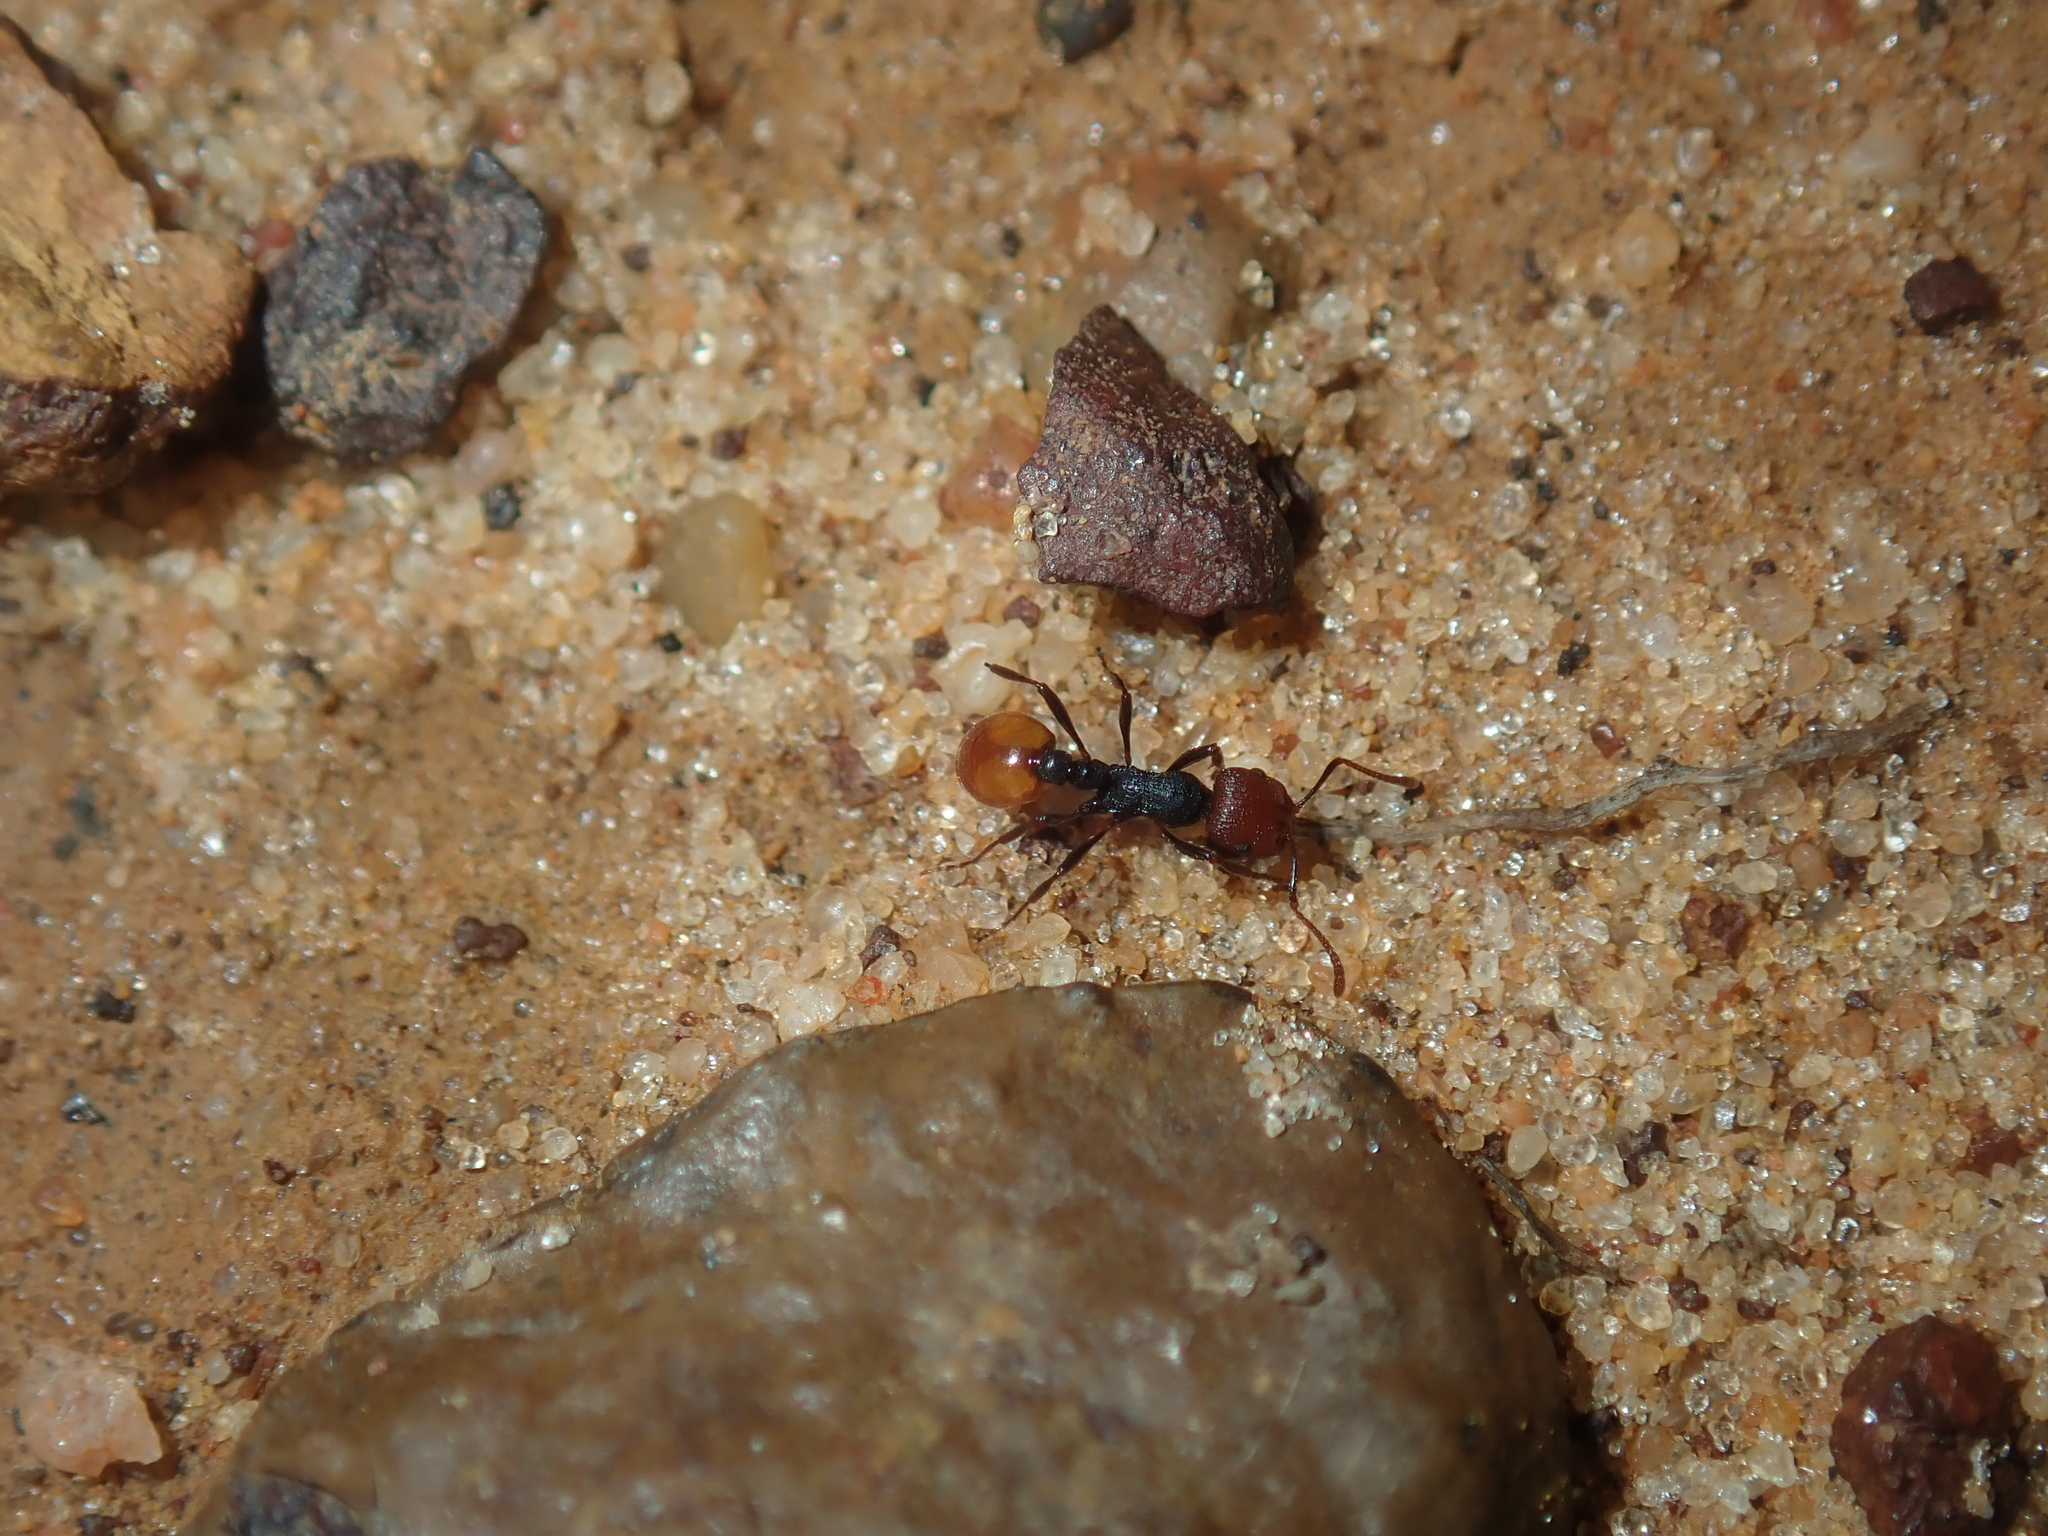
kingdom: Animalia
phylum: Arthropoda
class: Insecta
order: Hymenoptera
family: Formicidae
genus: Chelaner
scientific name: Chelaner
